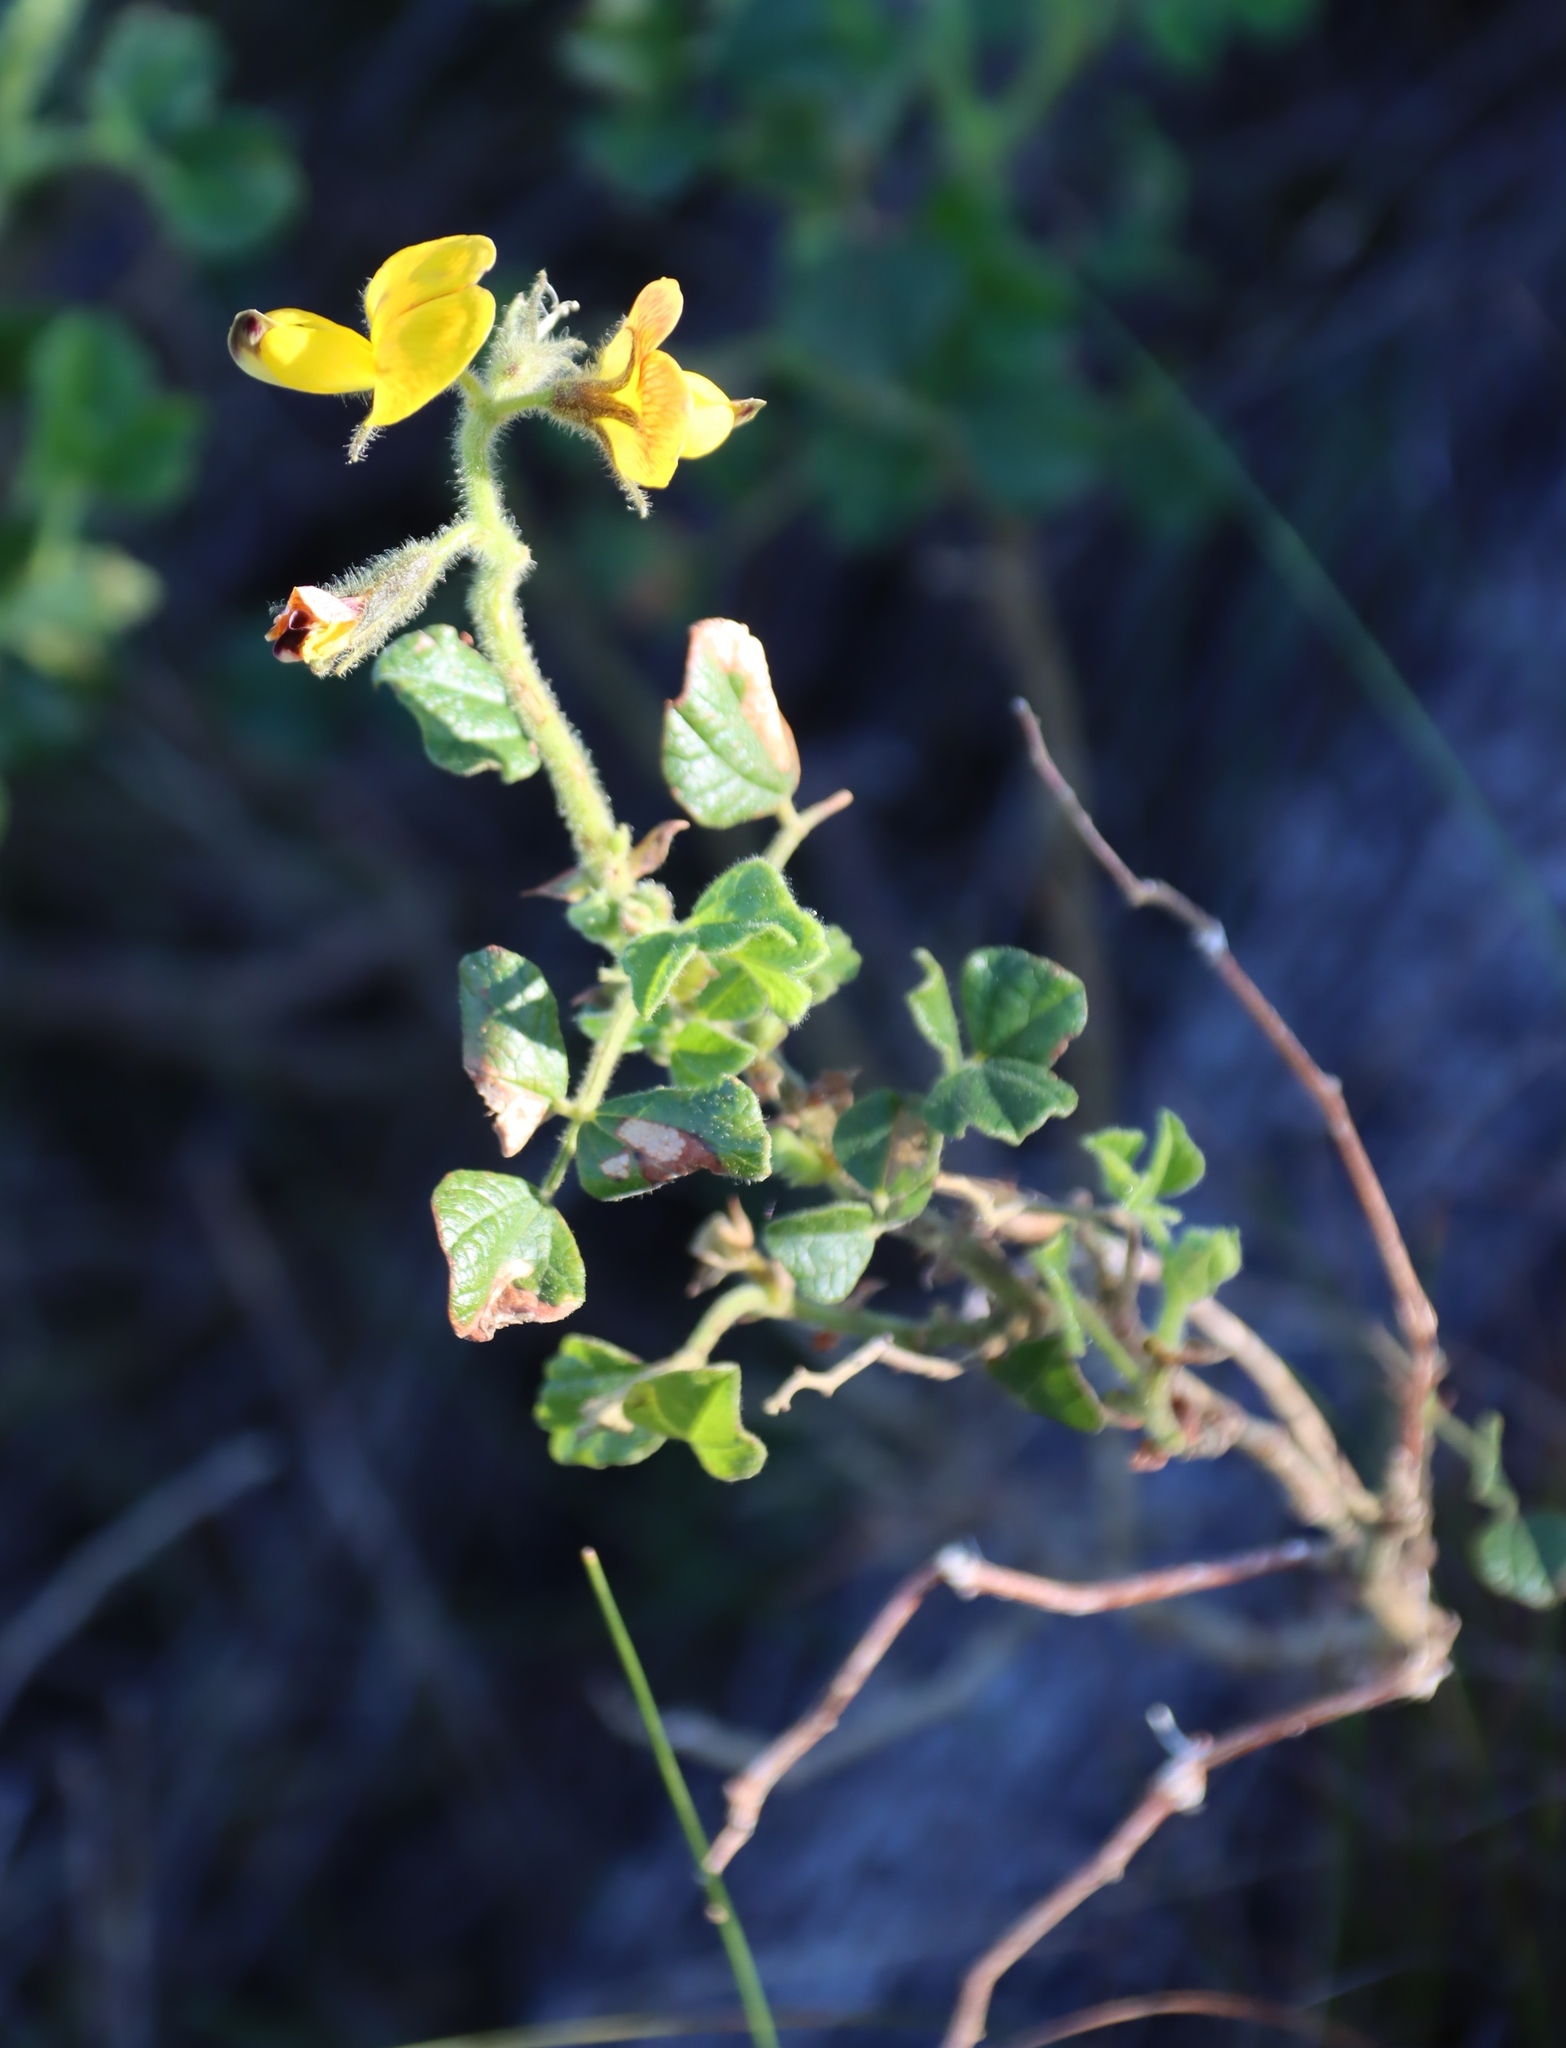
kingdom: Plantae
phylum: Tracheophyta
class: Magnoliopsida
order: Fabales
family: Fabaceae
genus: Bolusafra
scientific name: Bolusafra bituminosa
